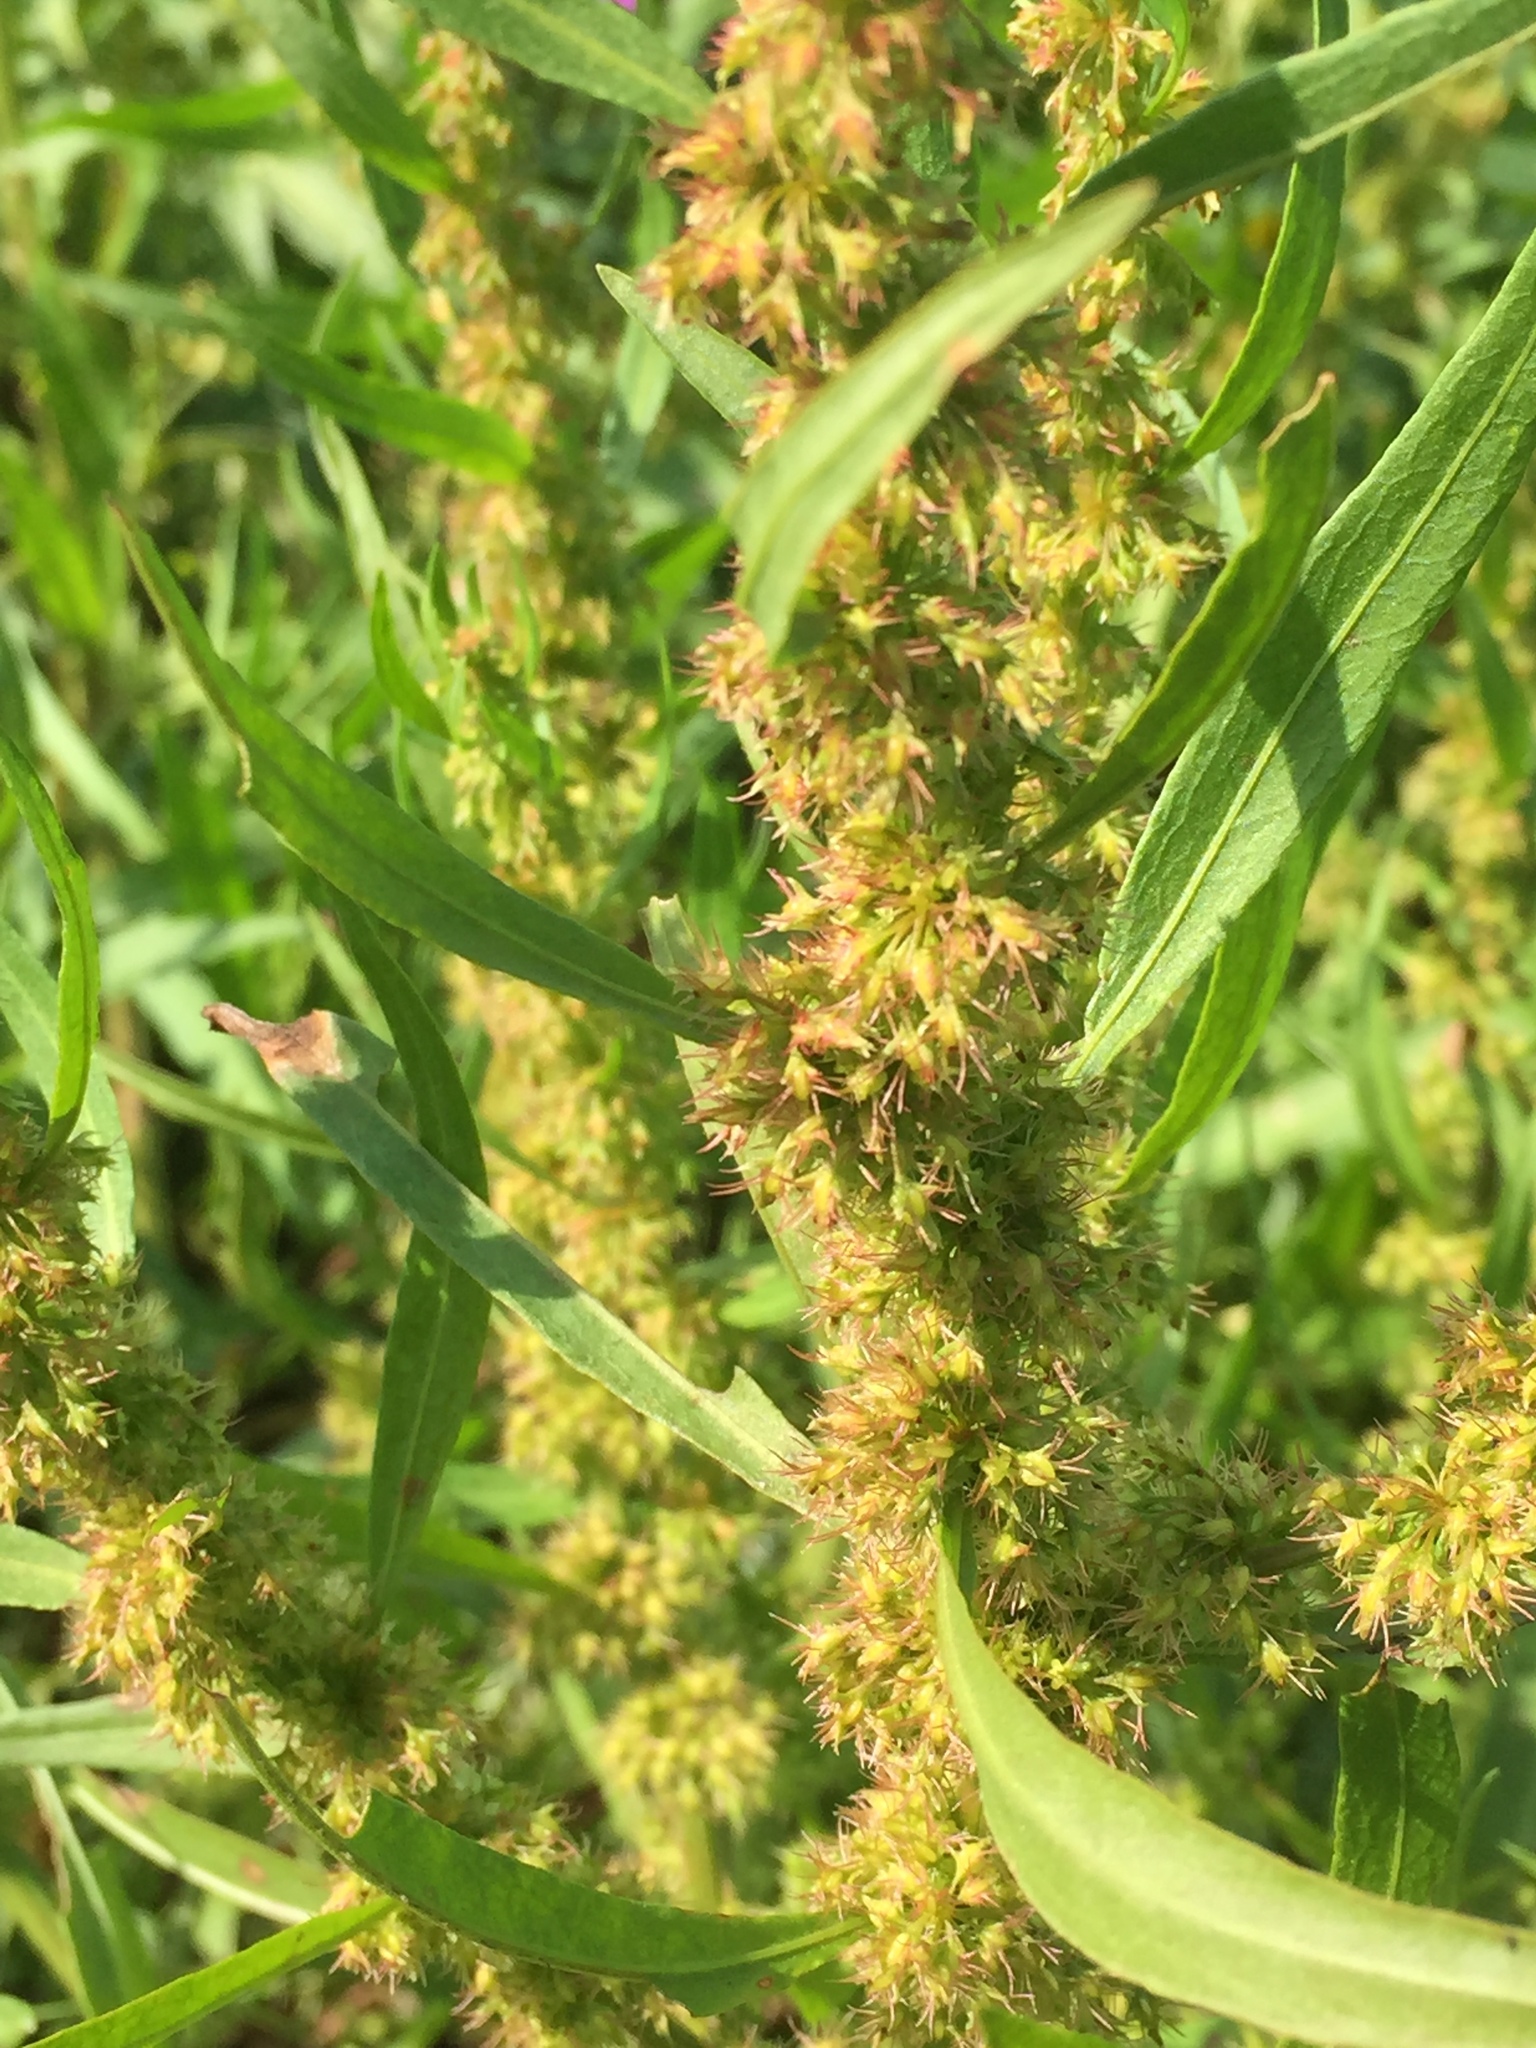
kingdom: Plantae
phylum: Tracheophyta
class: Magnoliopsida
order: Caryophyllales
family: Polygonaceae
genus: Rumex
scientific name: Rumex maritimus
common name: Golden dock
